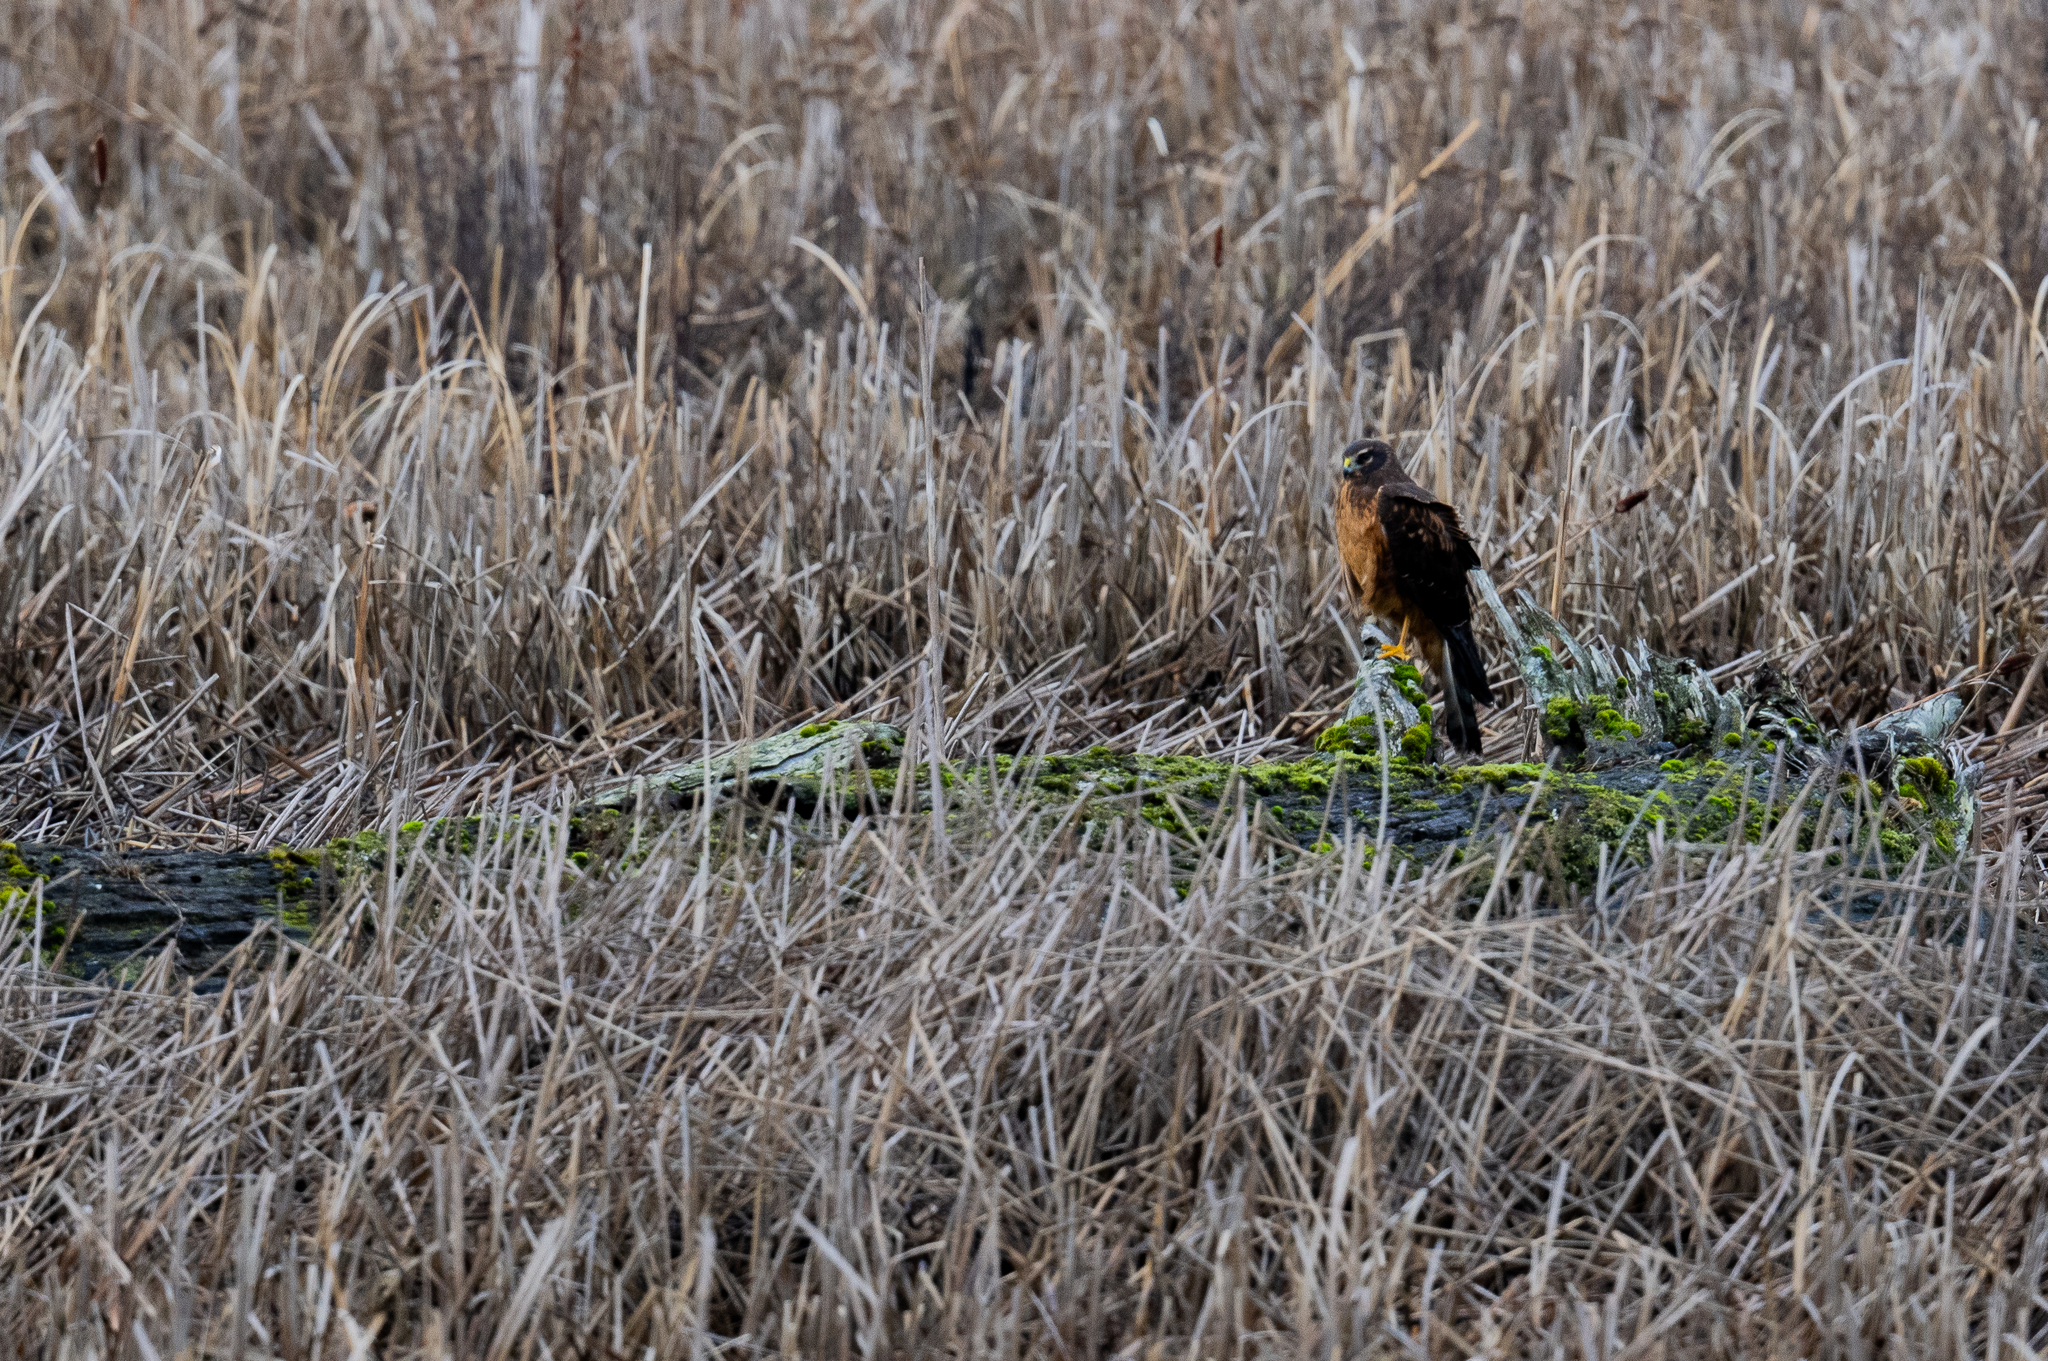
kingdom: Animalia
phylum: Chordata
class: Aves
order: Accipitriformes
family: Accipitridae
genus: Circus
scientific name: Circus cyaneus
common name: Hen harrier
